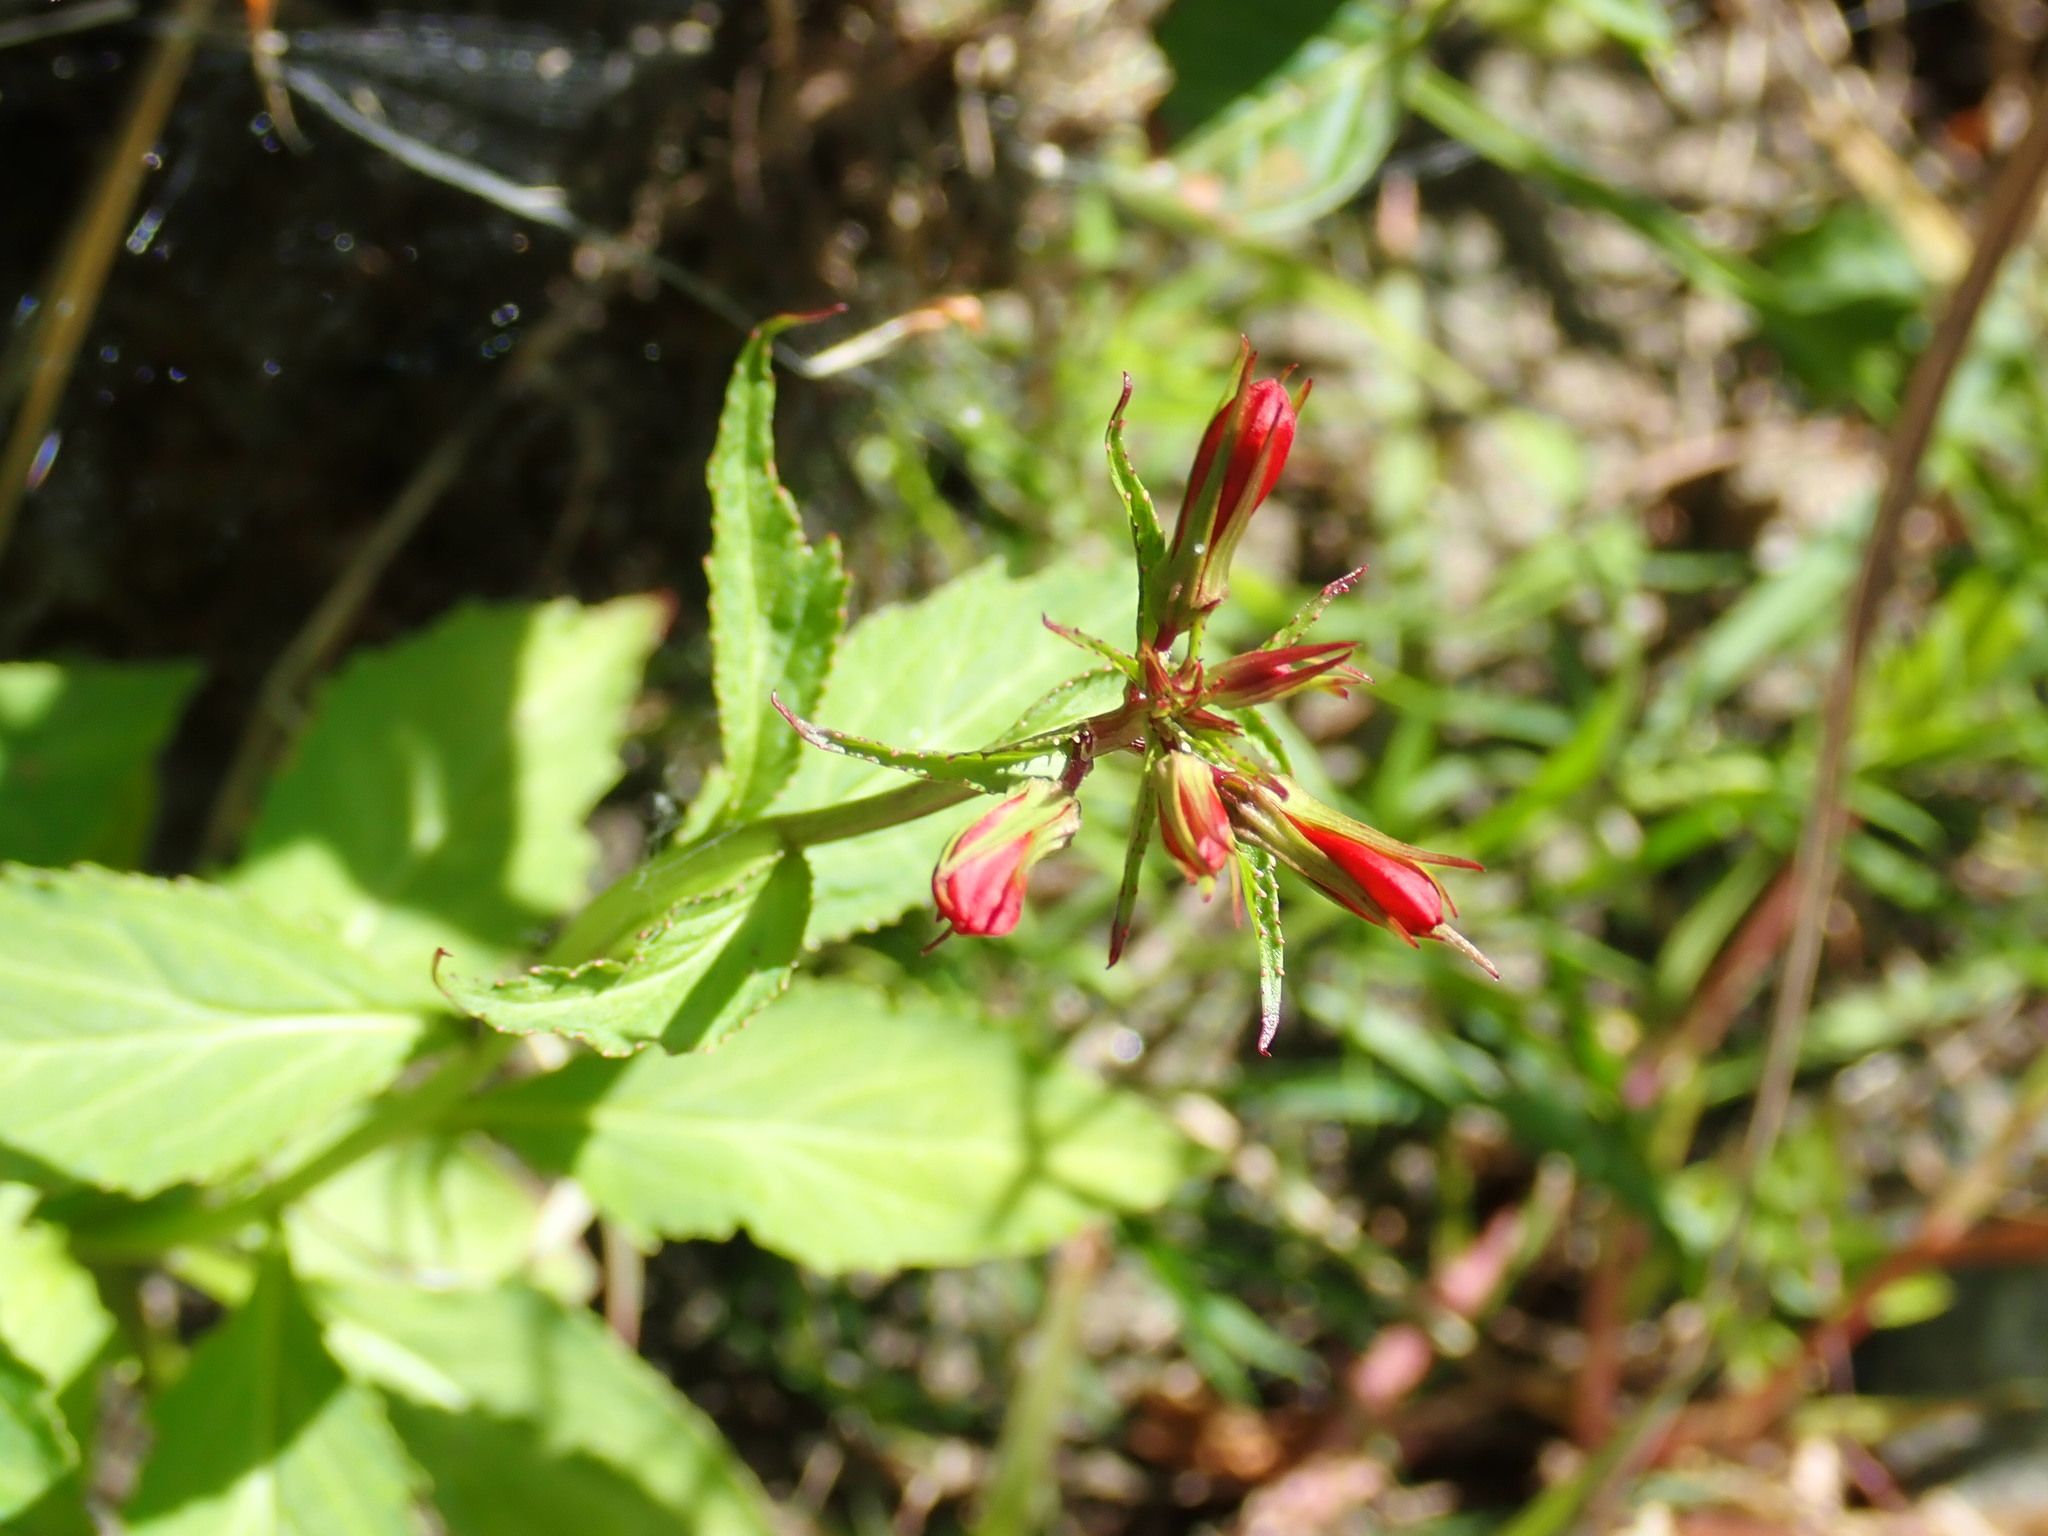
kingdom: Plantae
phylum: Tracheophyta
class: Magnoliopsida
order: Asterales
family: Campanulaceae
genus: Lobelia
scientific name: Lobelia cardinalis
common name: Cardinal flower
